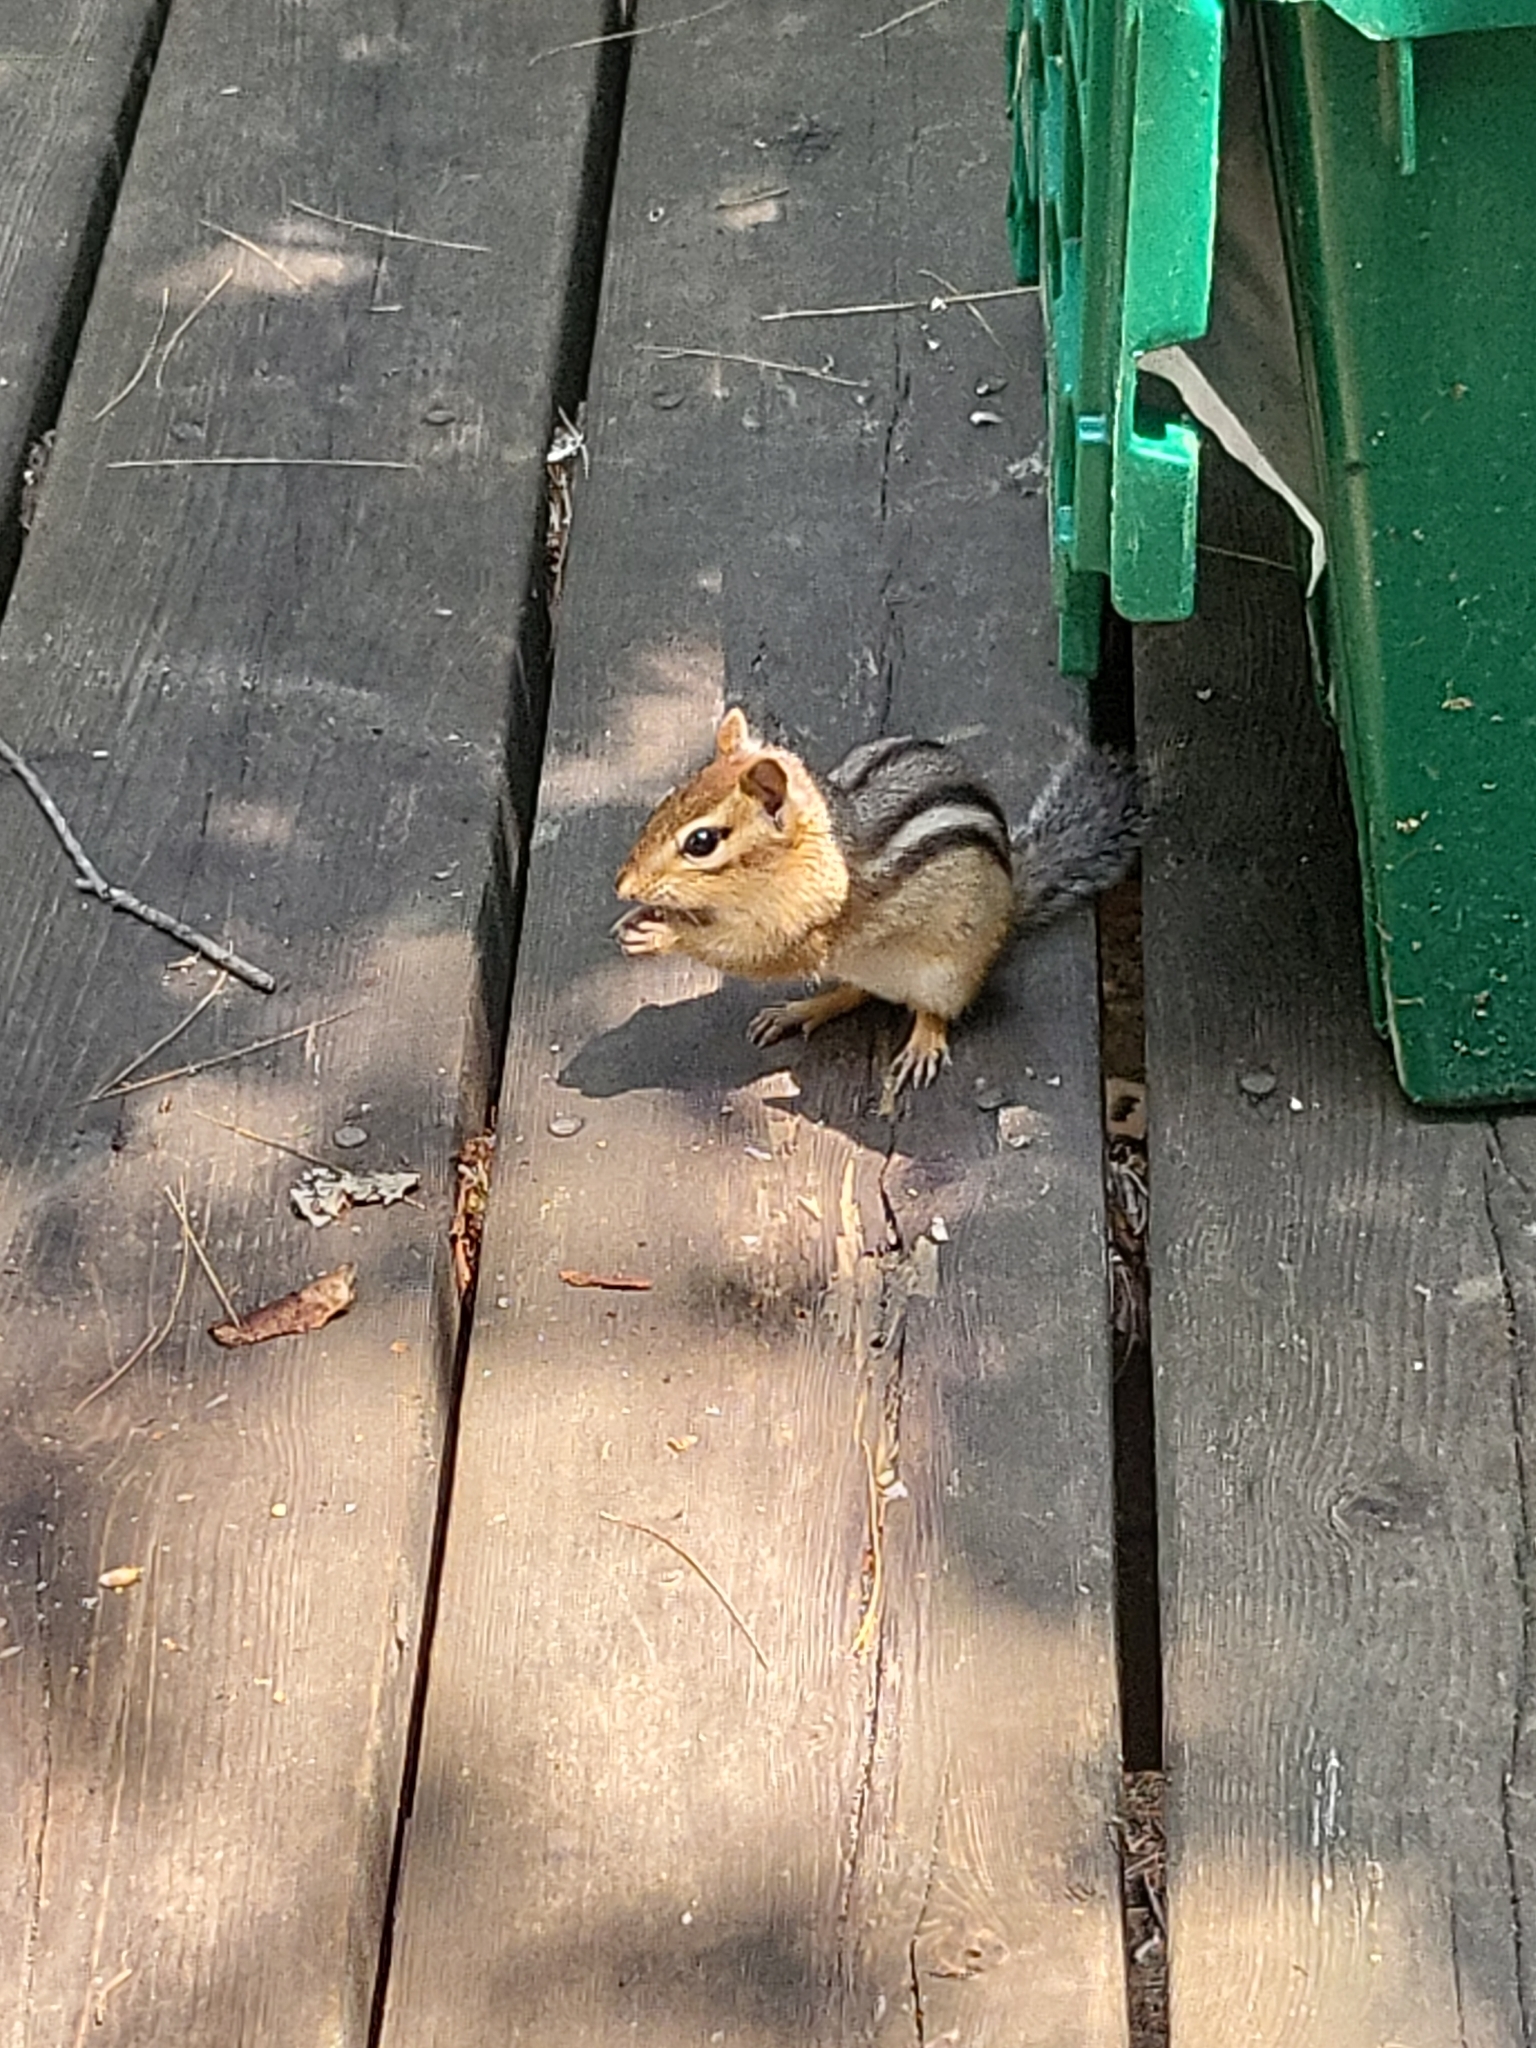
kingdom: Animalia
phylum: Chordata
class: Mammalia
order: Rodentia
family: Sciuridae
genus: Tamias
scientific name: Tamias striatus
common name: Eastern chipmunk
